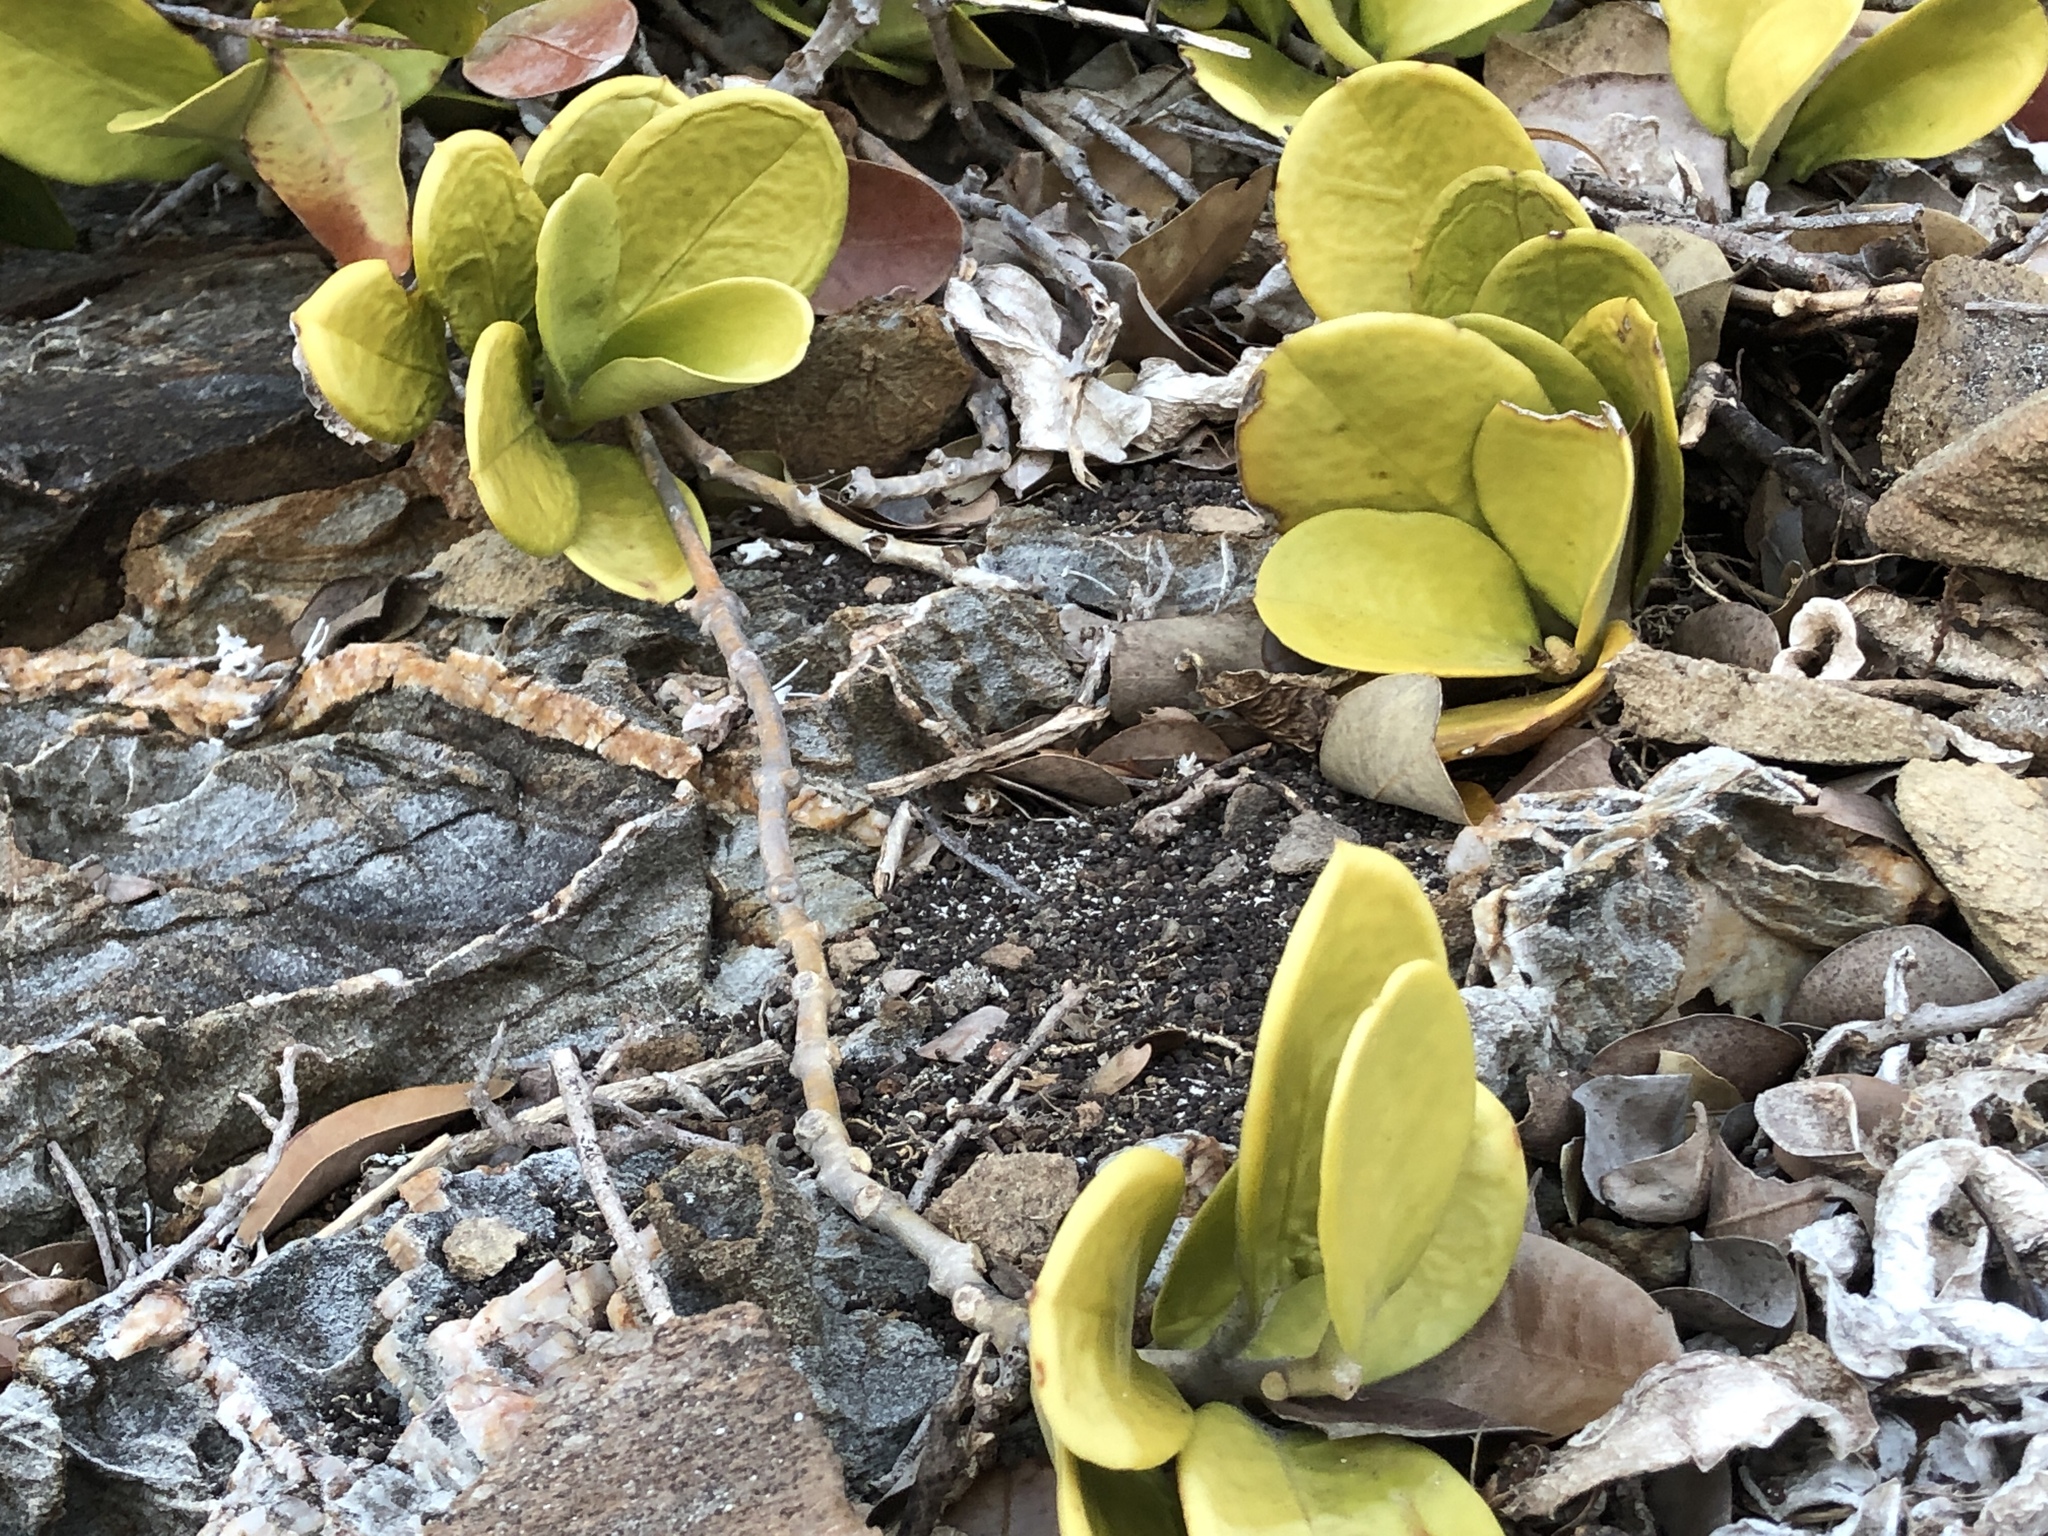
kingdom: Plantae
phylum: Tracheophyta
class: Magnoliopsida
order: Gentianales
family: Apocynaceae
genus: Hoya
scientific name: Hoya australis
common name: Wax flower
